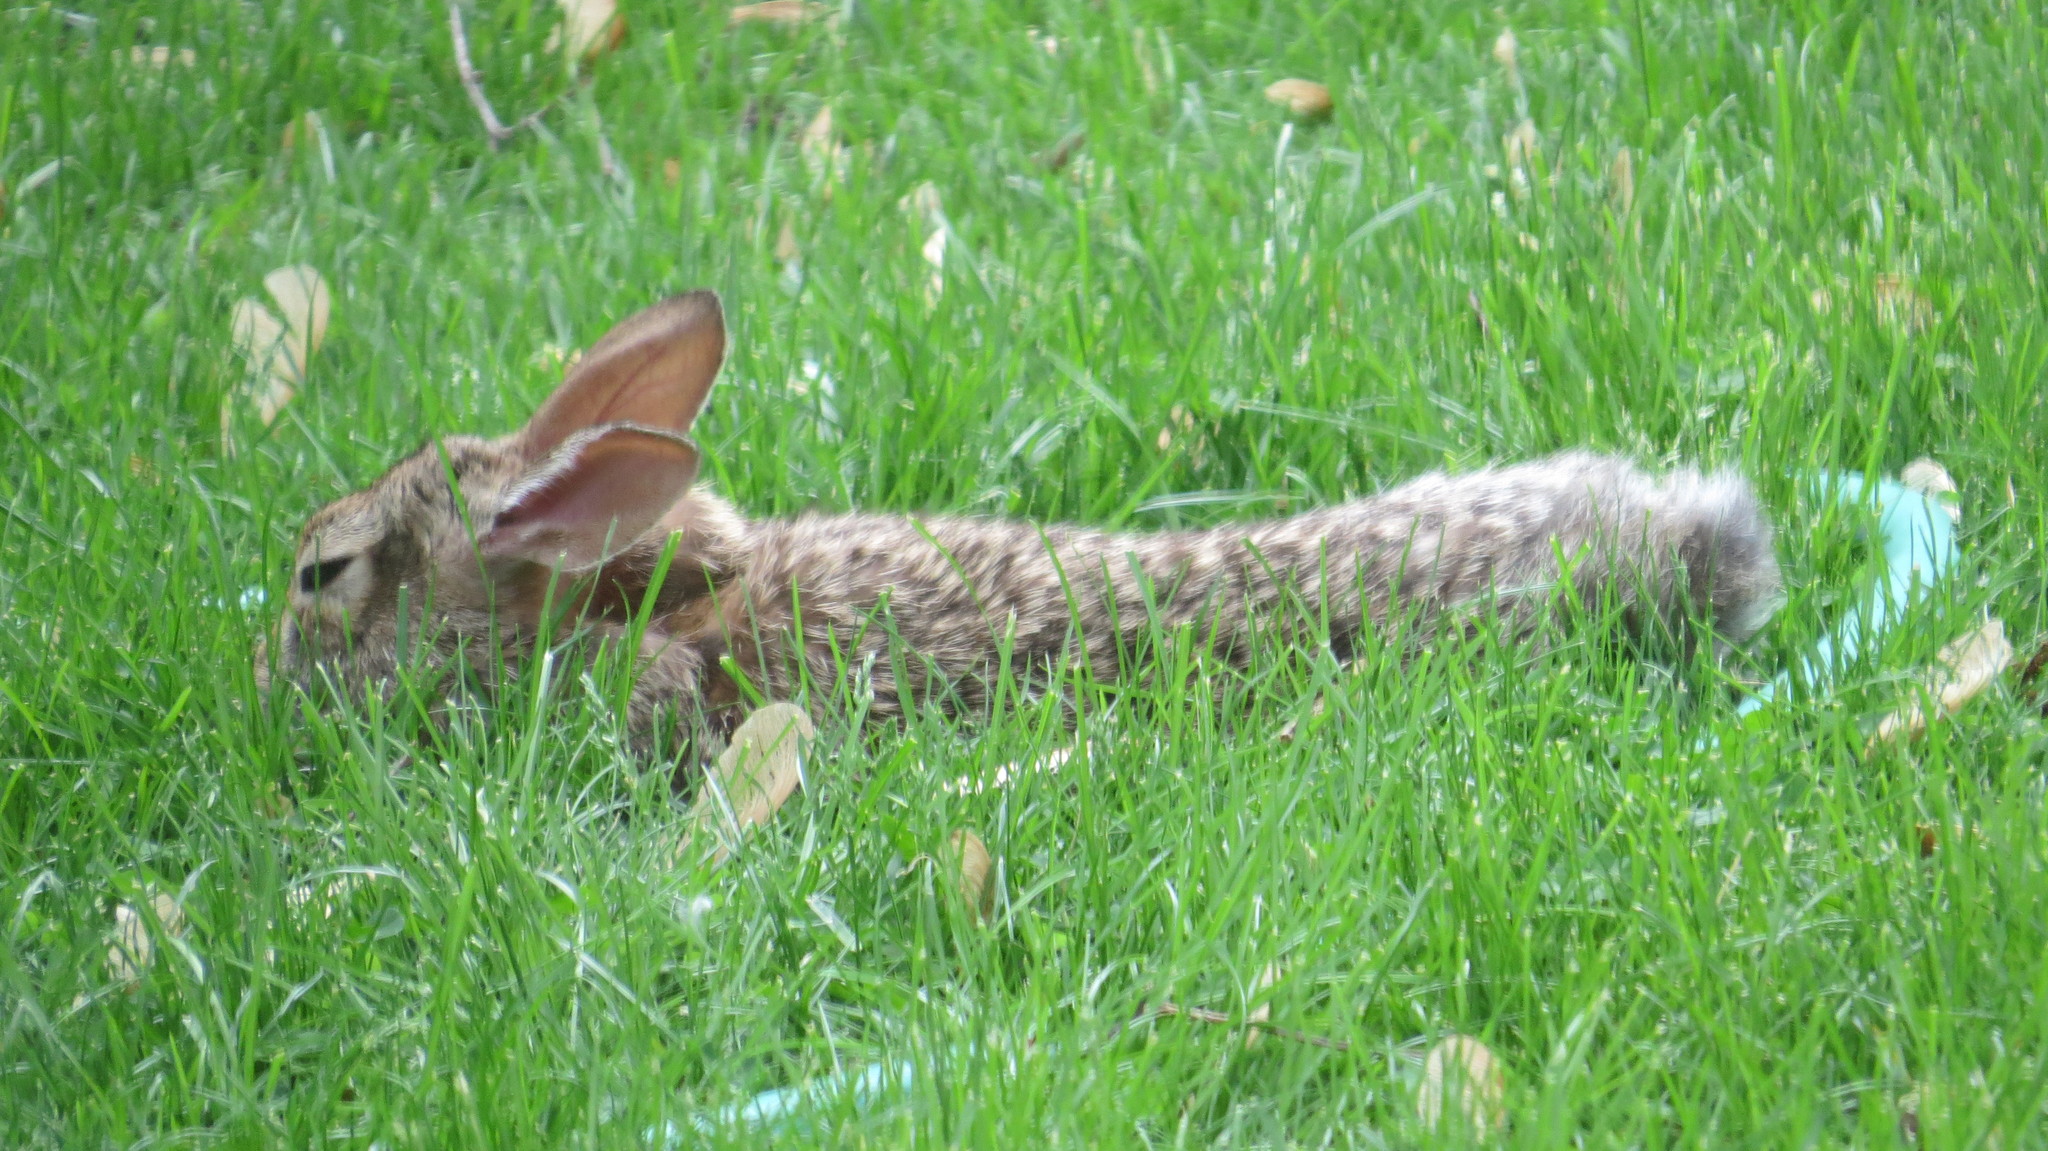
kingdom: Animalia
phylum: Chordata
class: Mammalia
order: Lagomorpha
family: Leporidae
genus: Sylvilagus
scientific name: Sylvilagus floridanus
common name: Eastern cottontail
